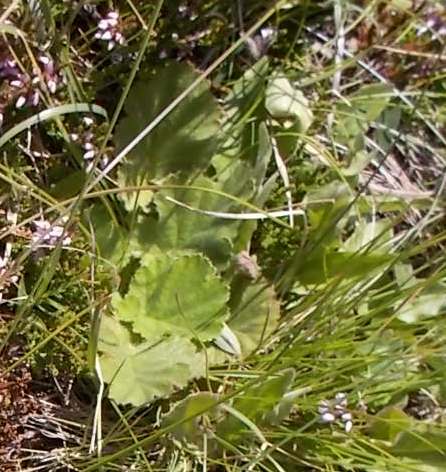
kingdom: Plantae
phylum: Tracheophyta
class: Magnoliopsida
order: Rosales
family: Rosaceae
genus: Geum
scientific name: Geum montanum
